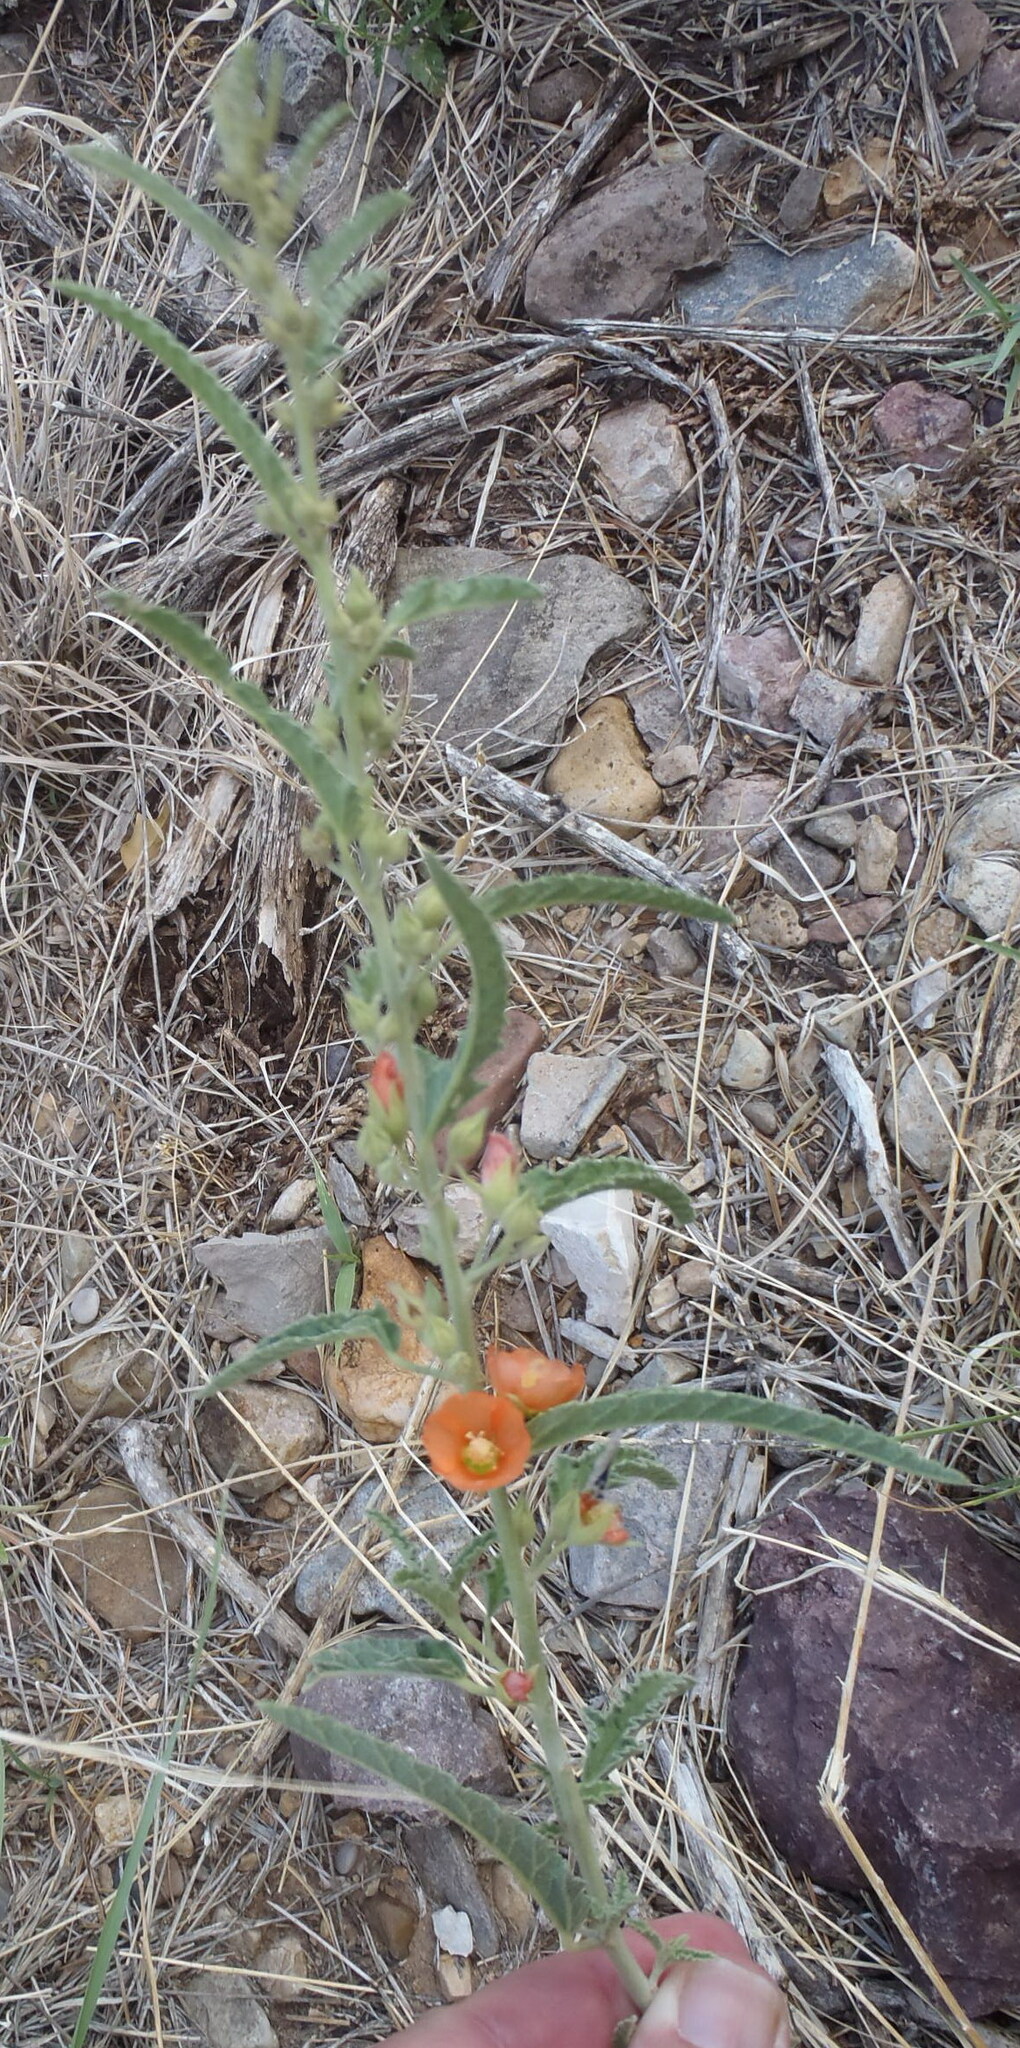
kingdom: Plantae
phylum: Tracheophyta
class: Magnoliopsida
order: Malvales
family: Malvaceae
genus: Sphaeralcea
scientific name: Sphaeralcea angustifolia
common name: Copper globe-mallow
